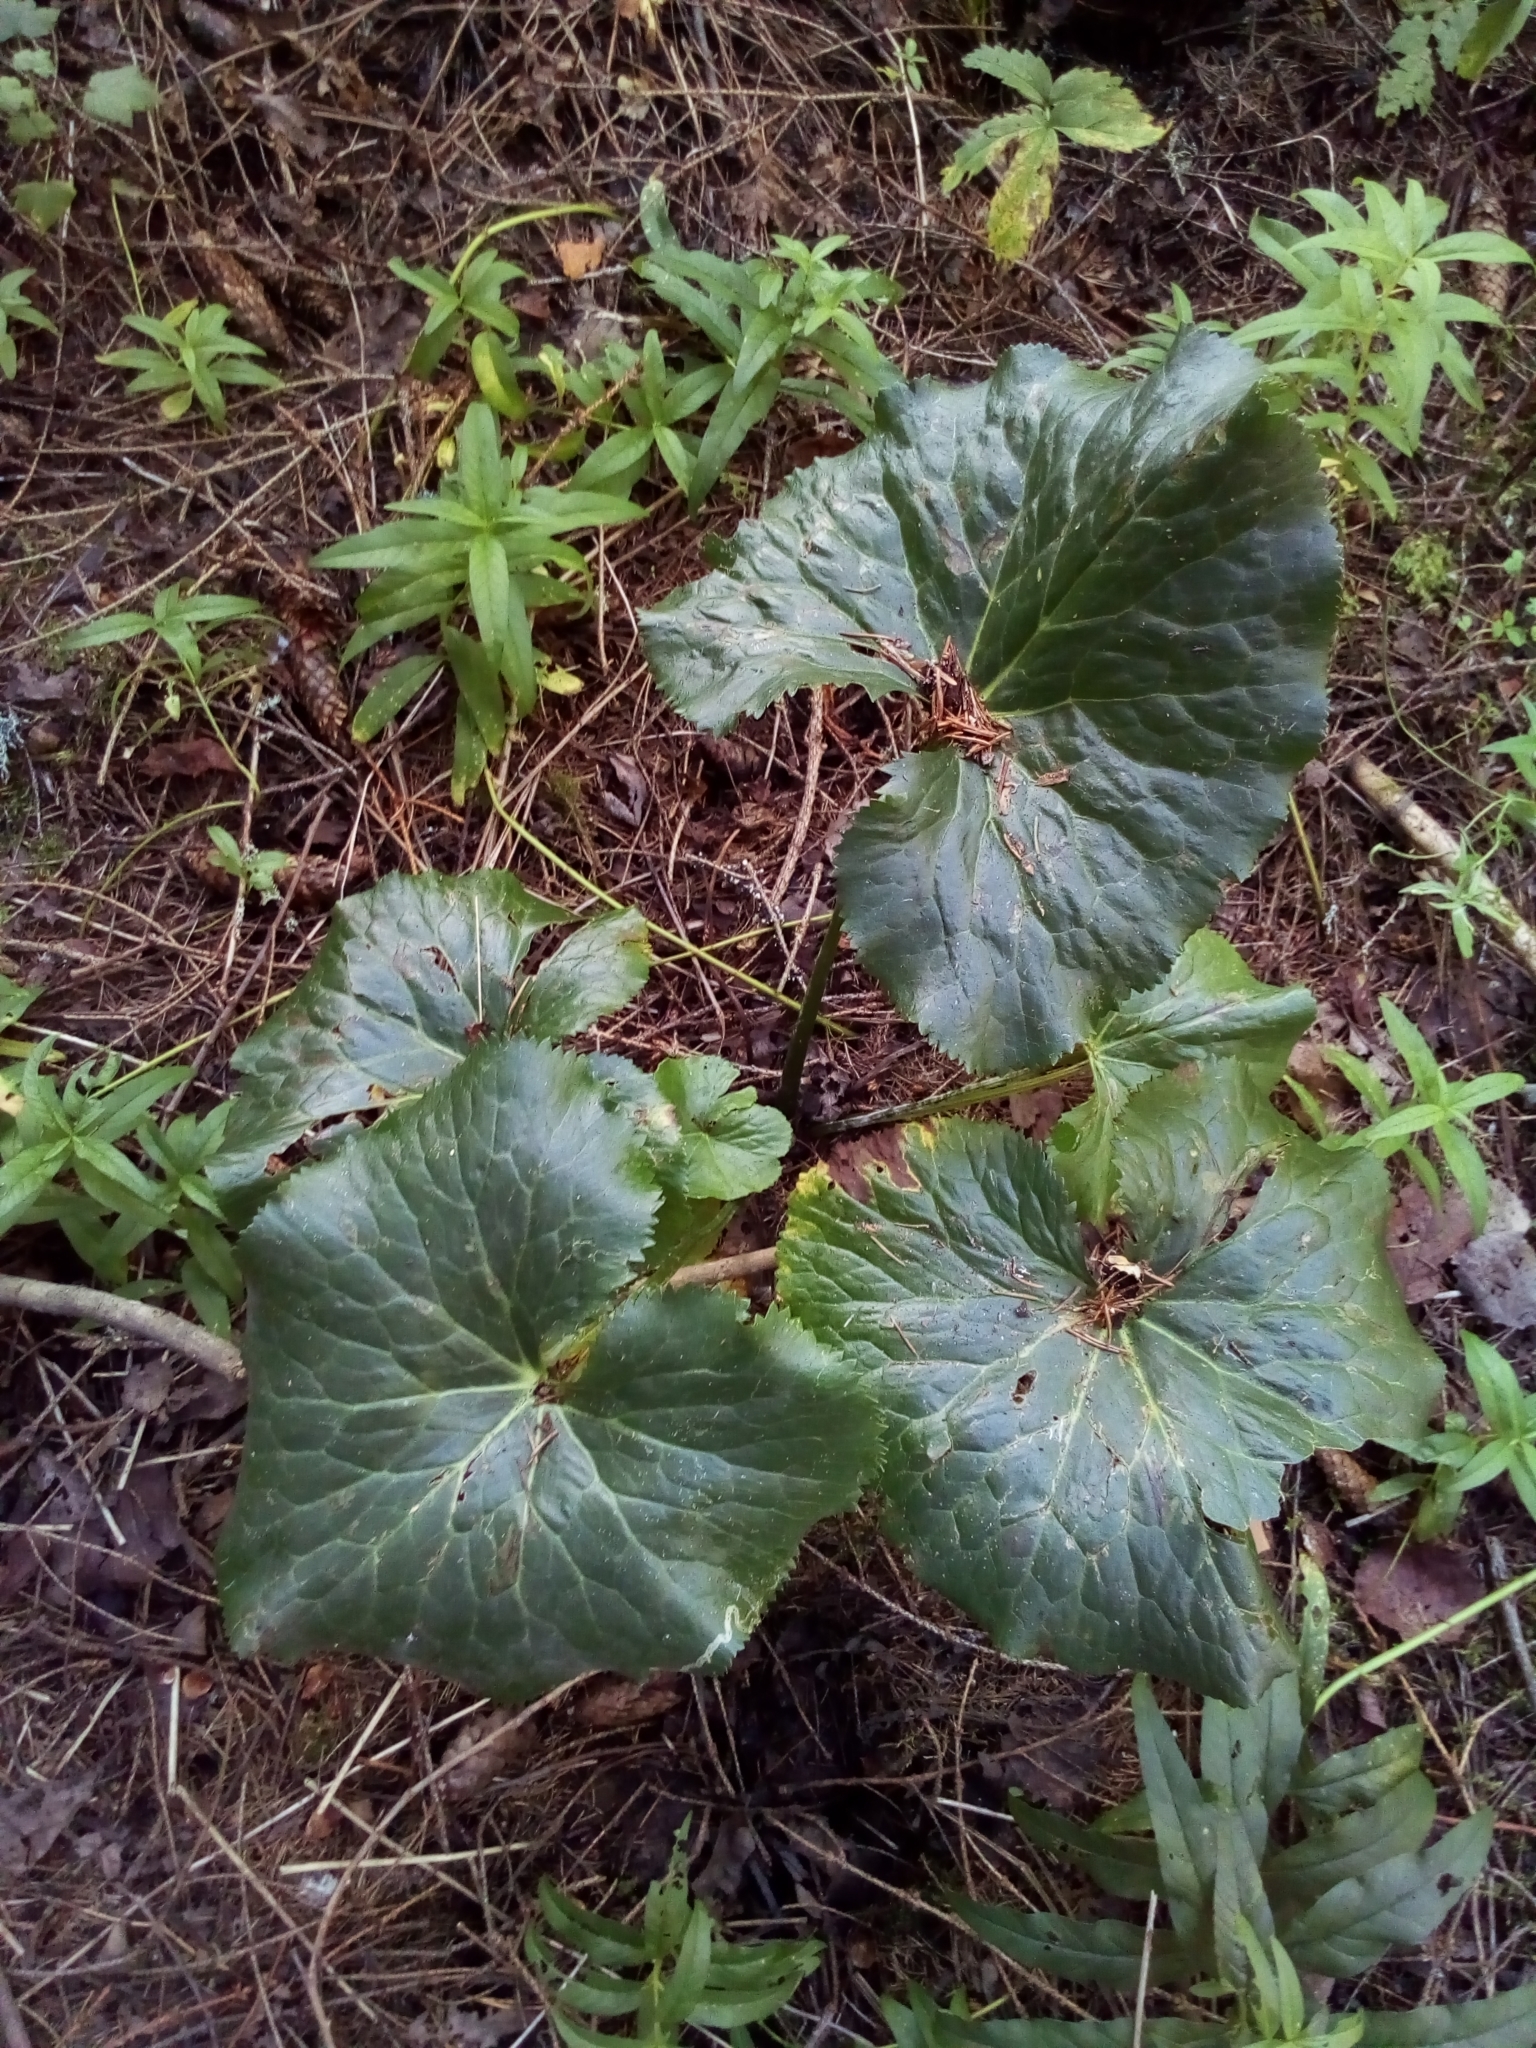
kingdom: Plantae
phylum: Tracheophyta
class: Magnoliopsida
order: Ranunculales
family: Ranunculaceae
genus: Caltha
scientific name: Caltha palustris
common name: Marsh marigold
